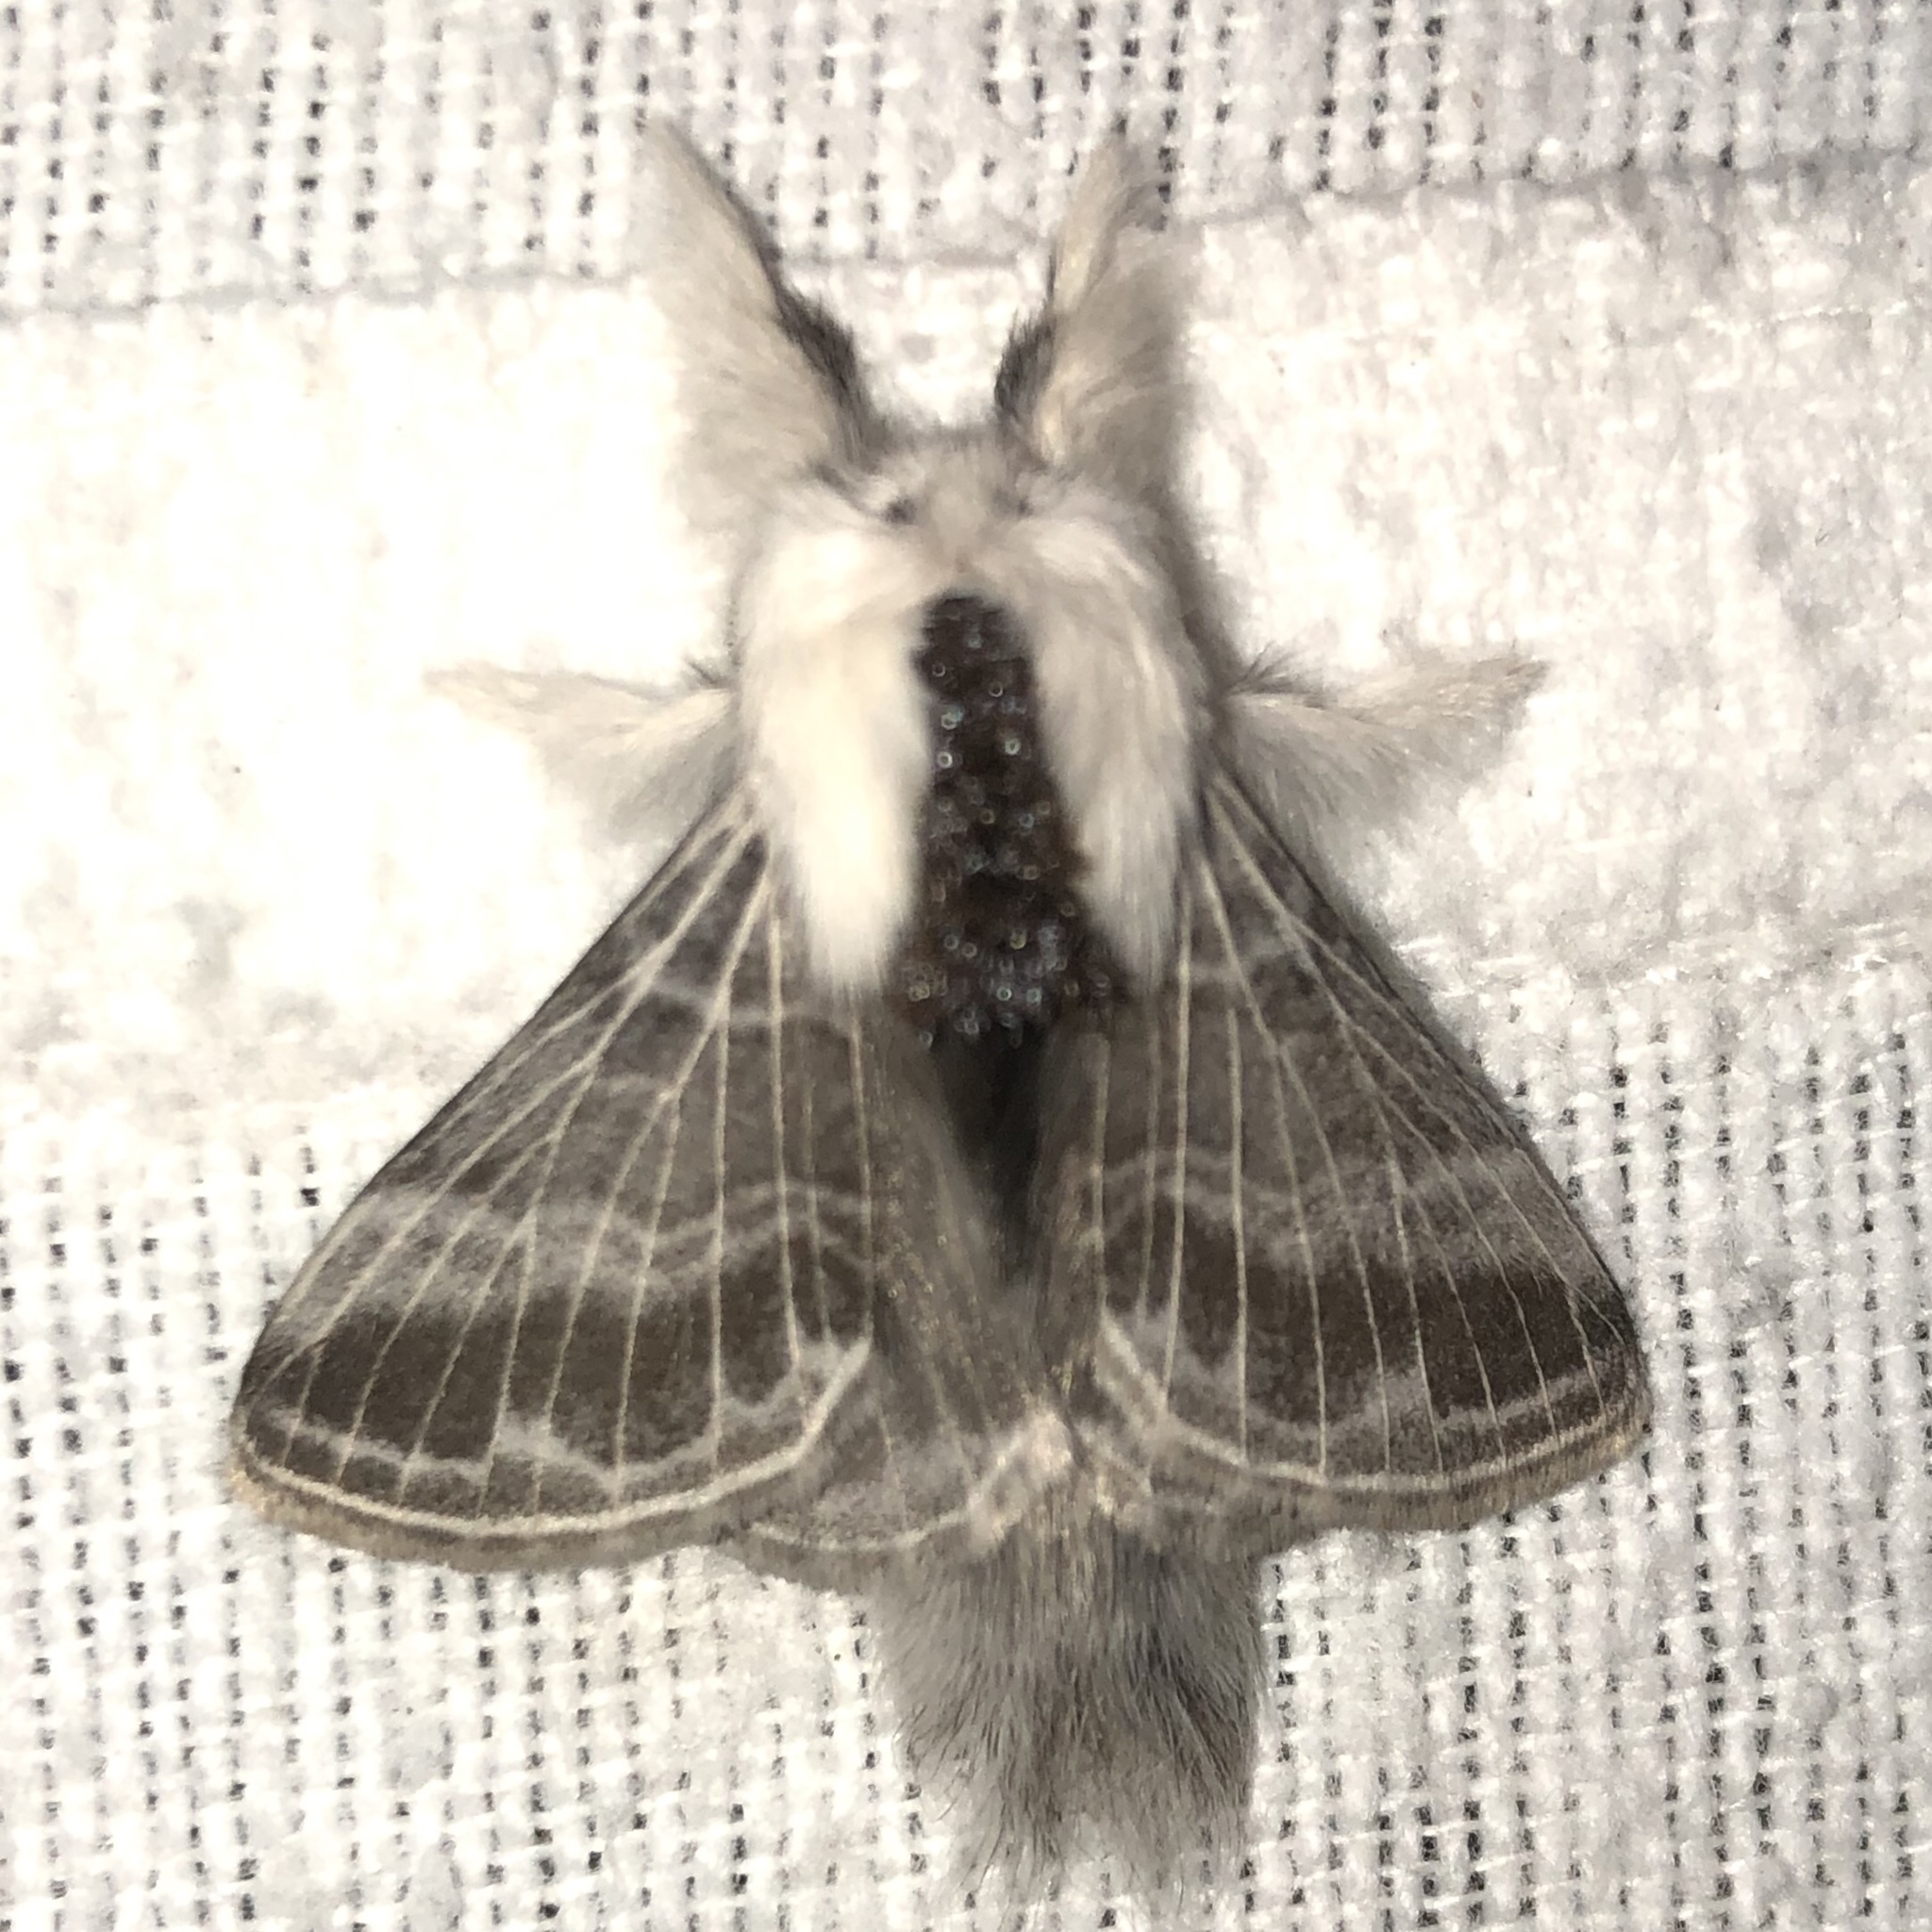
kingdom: Animalia
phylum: Arthropoda
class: Insecta
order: Lepidoptera
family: Lasiocampidae
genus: Tolype
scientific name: Tolype velleda
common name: Large tolype moth
